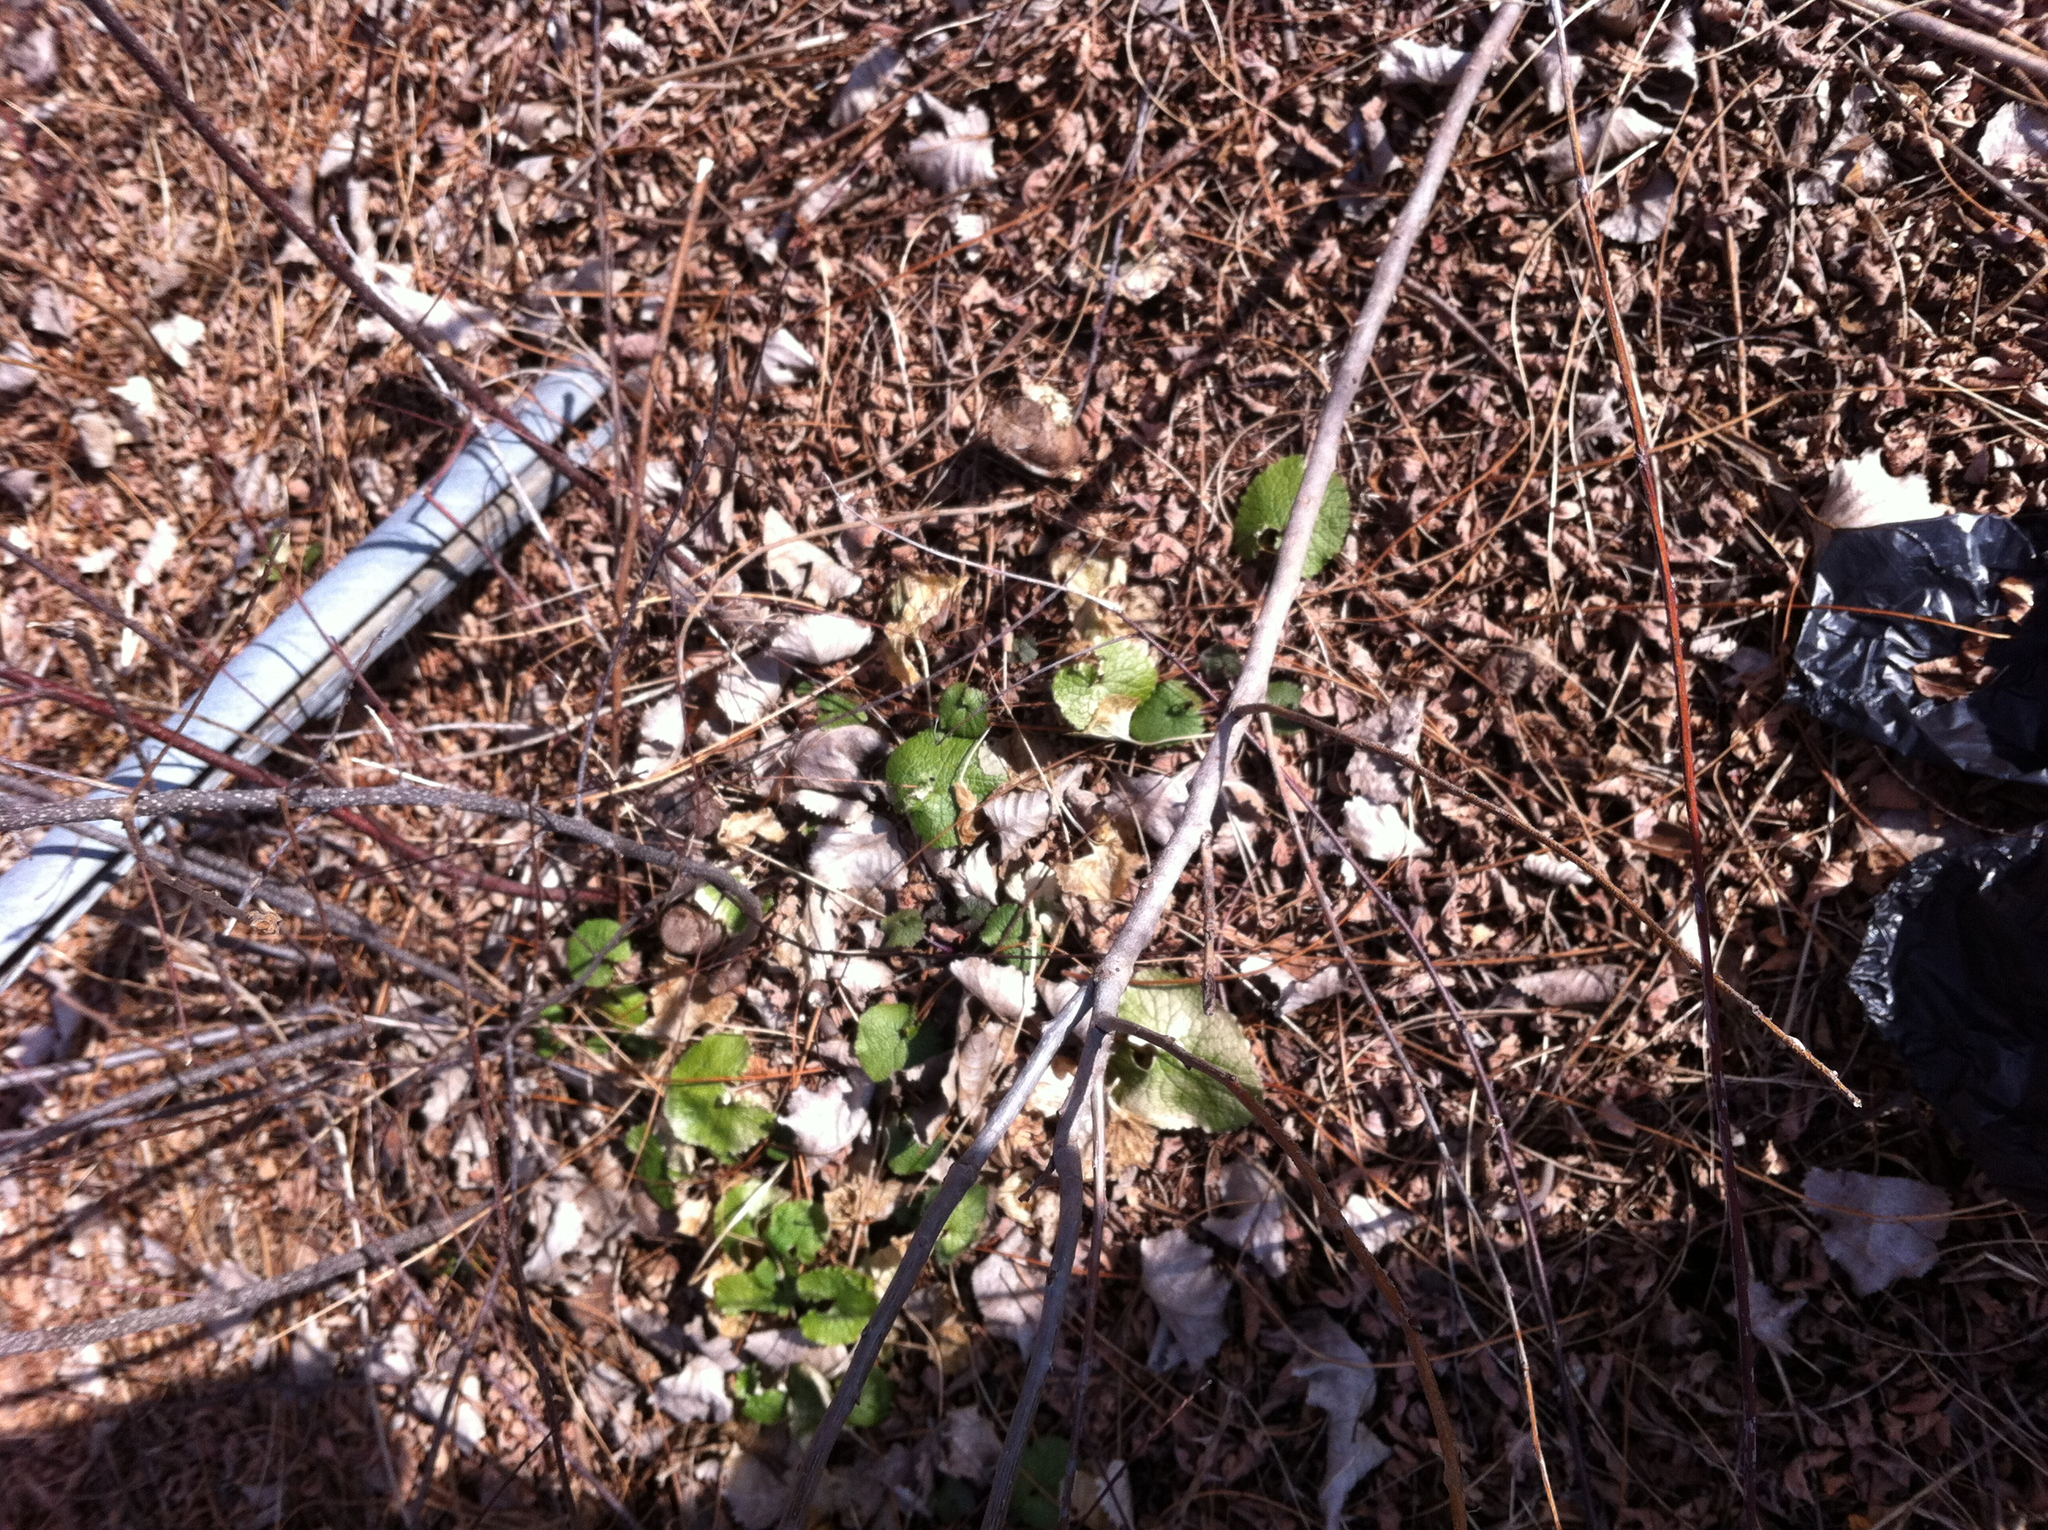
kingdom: Plantae
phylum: Tracheophyta
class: Magnoliopsida
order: Brassicales
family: Brassicaceae
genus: Alliaria
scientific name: Alliaria petiolata
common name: Garlic mustard
